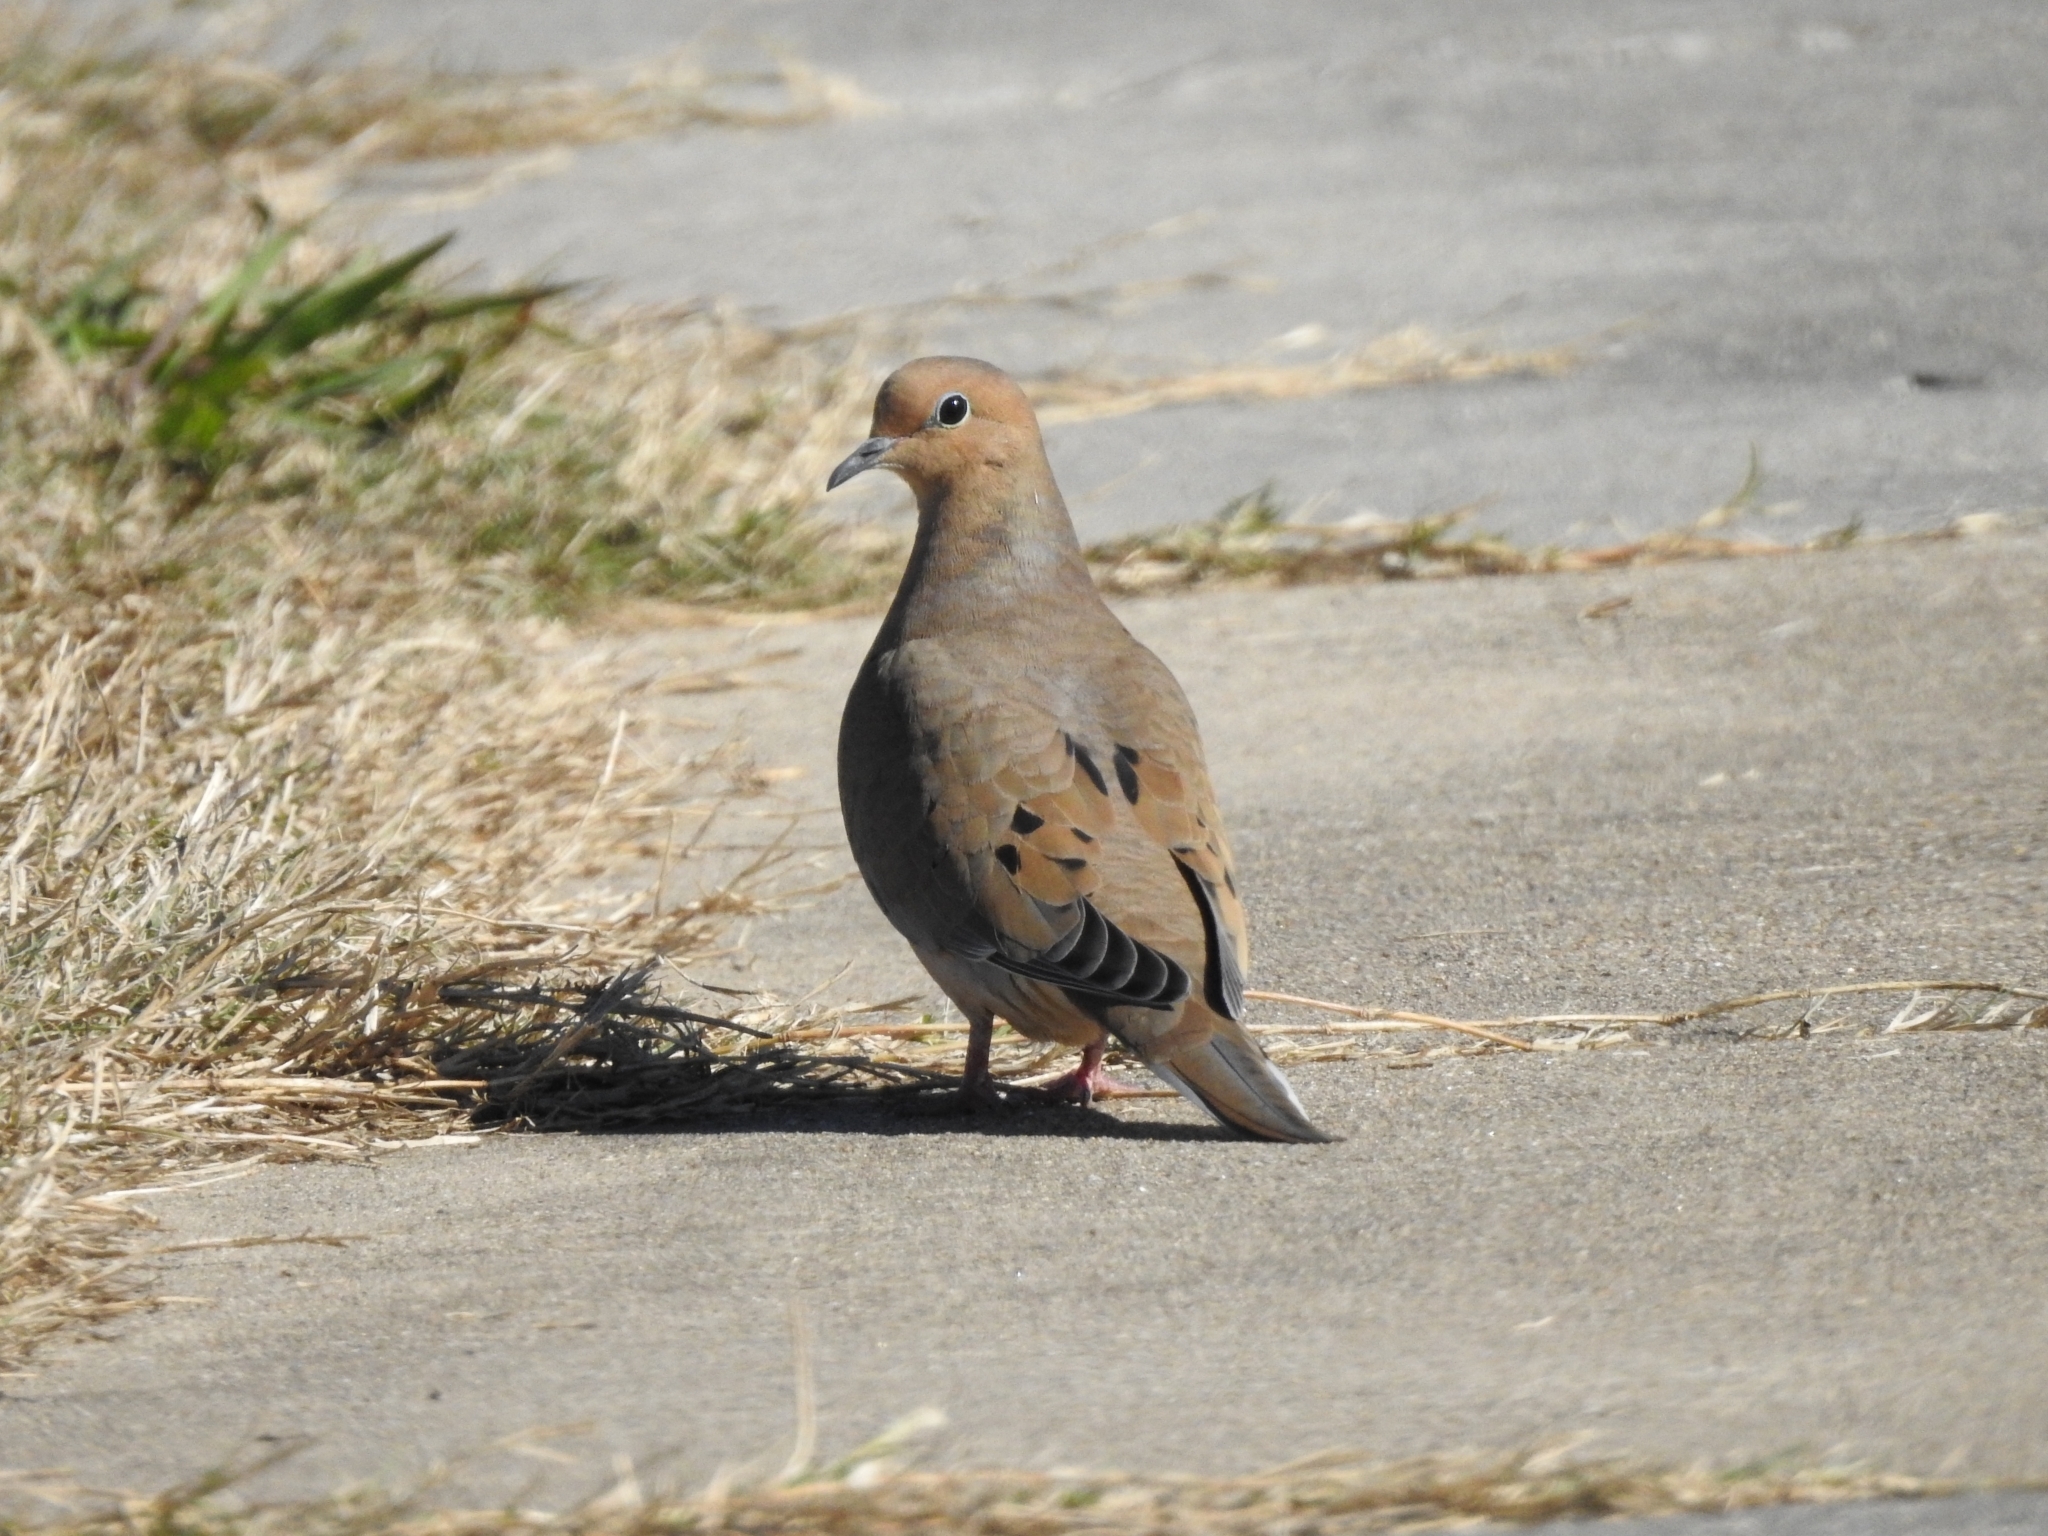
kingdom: Animalia
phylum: Chordata
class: Aves
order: Columbiformes
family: Columbidae
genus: Zenaida
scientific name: Zenaida macroura
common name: Mourning dove
